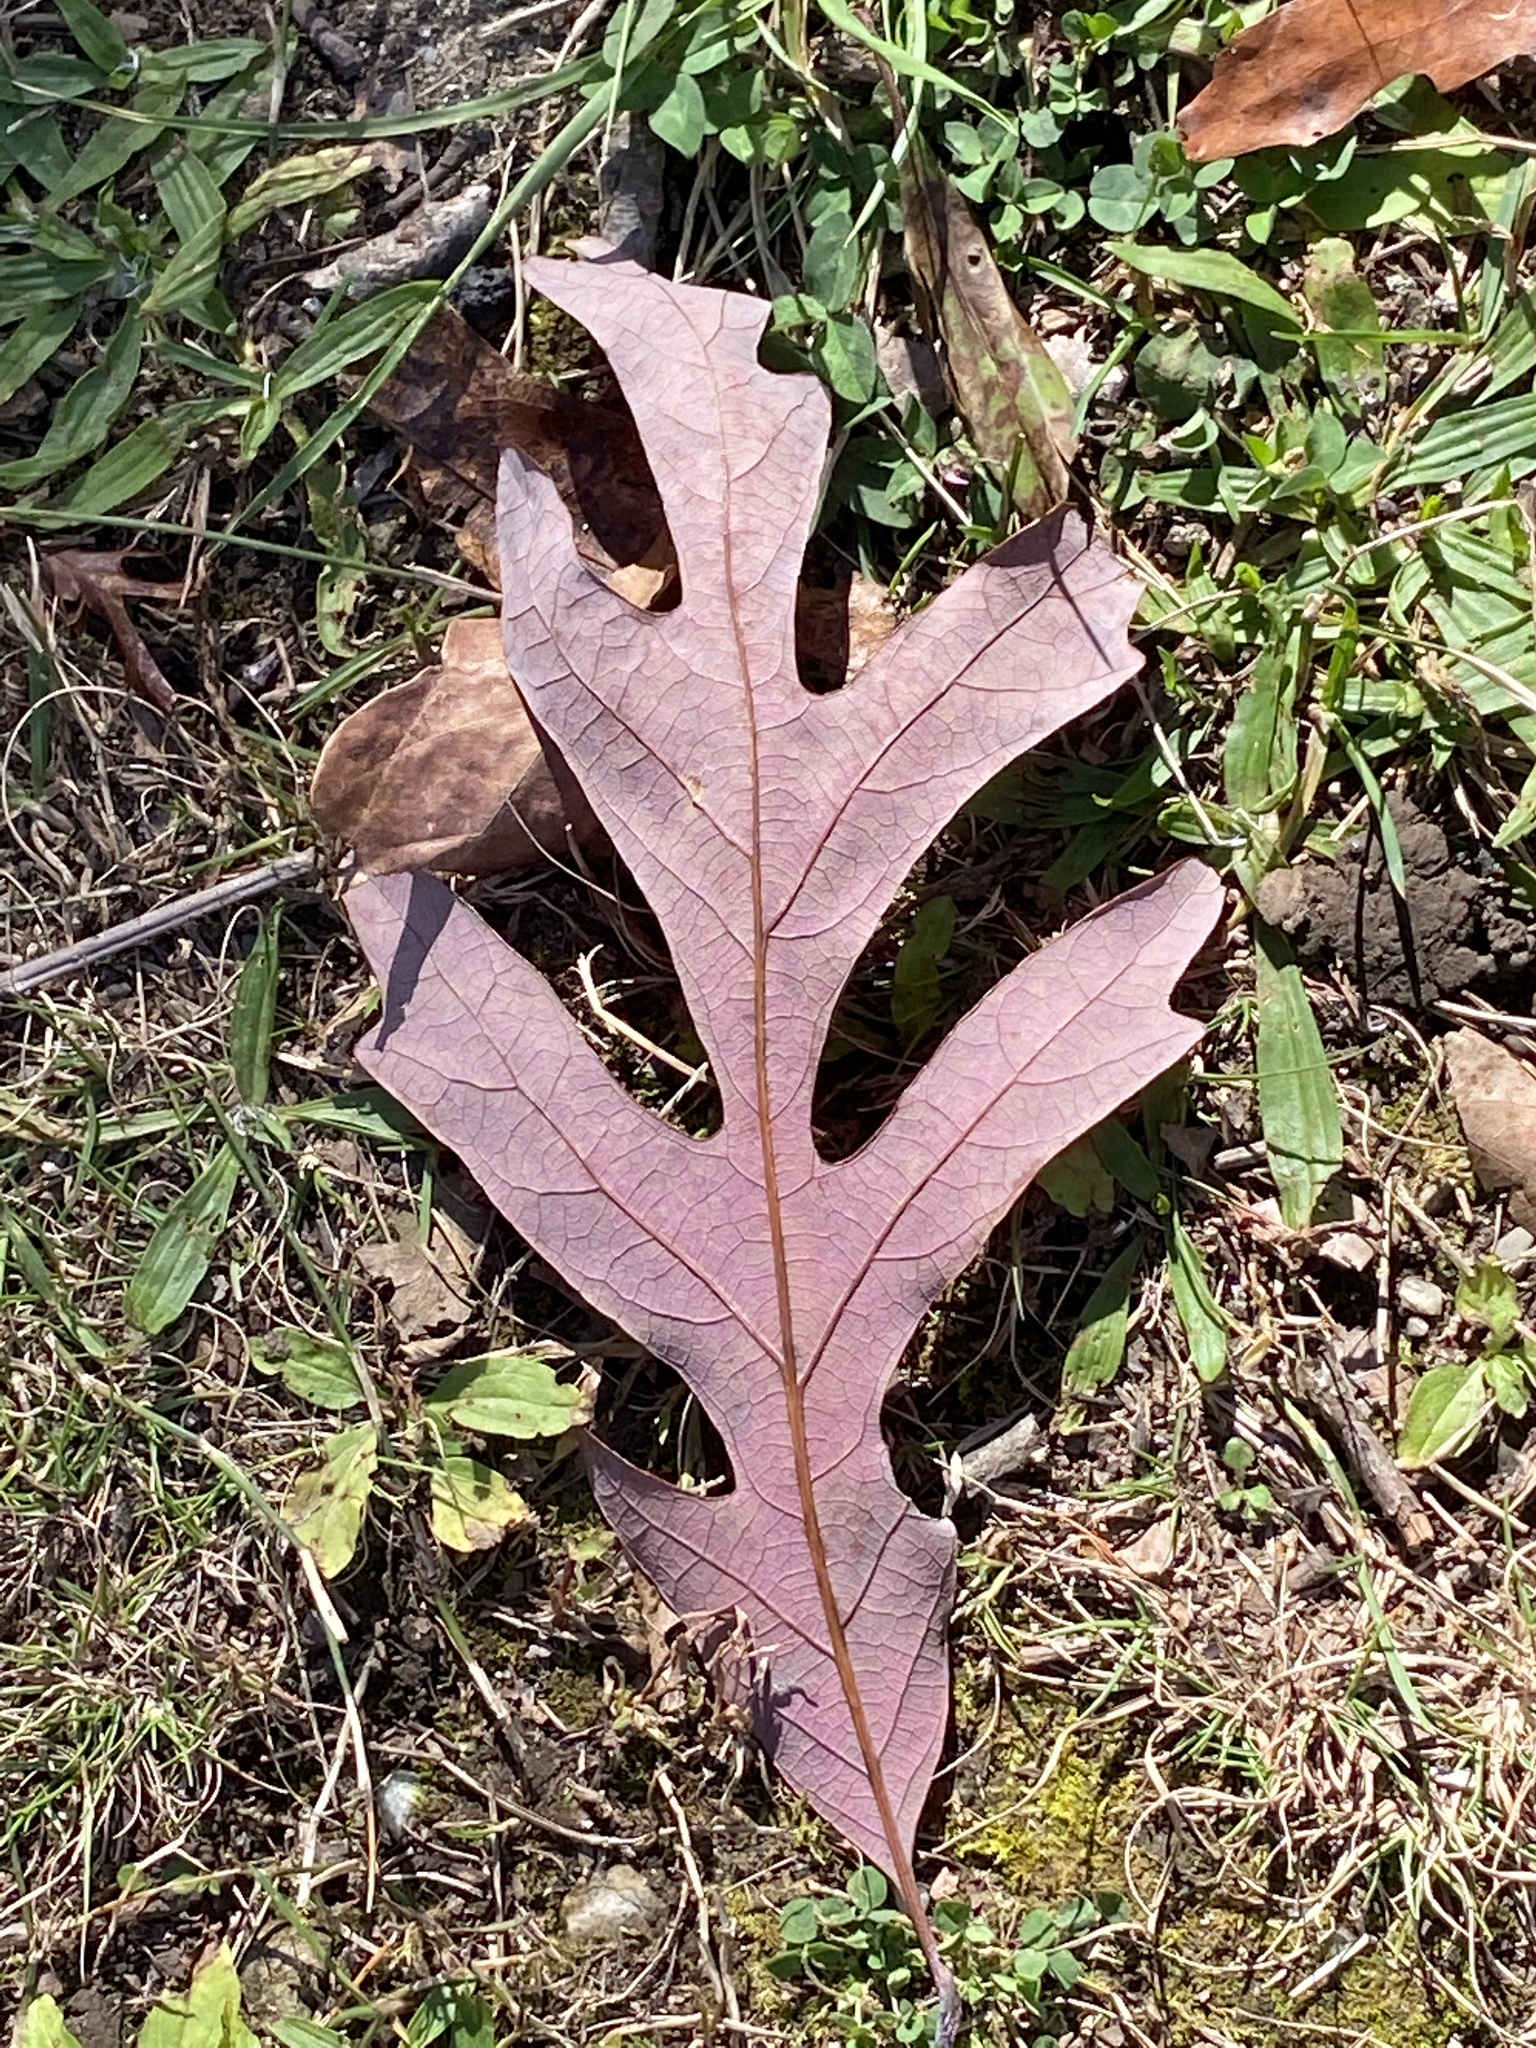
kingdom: Plantae
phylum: Tracheophyta
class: Magnoliopsida
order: Fagales
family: Fagaceae
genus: Quercus
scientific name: Quercus alba
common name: White oak
